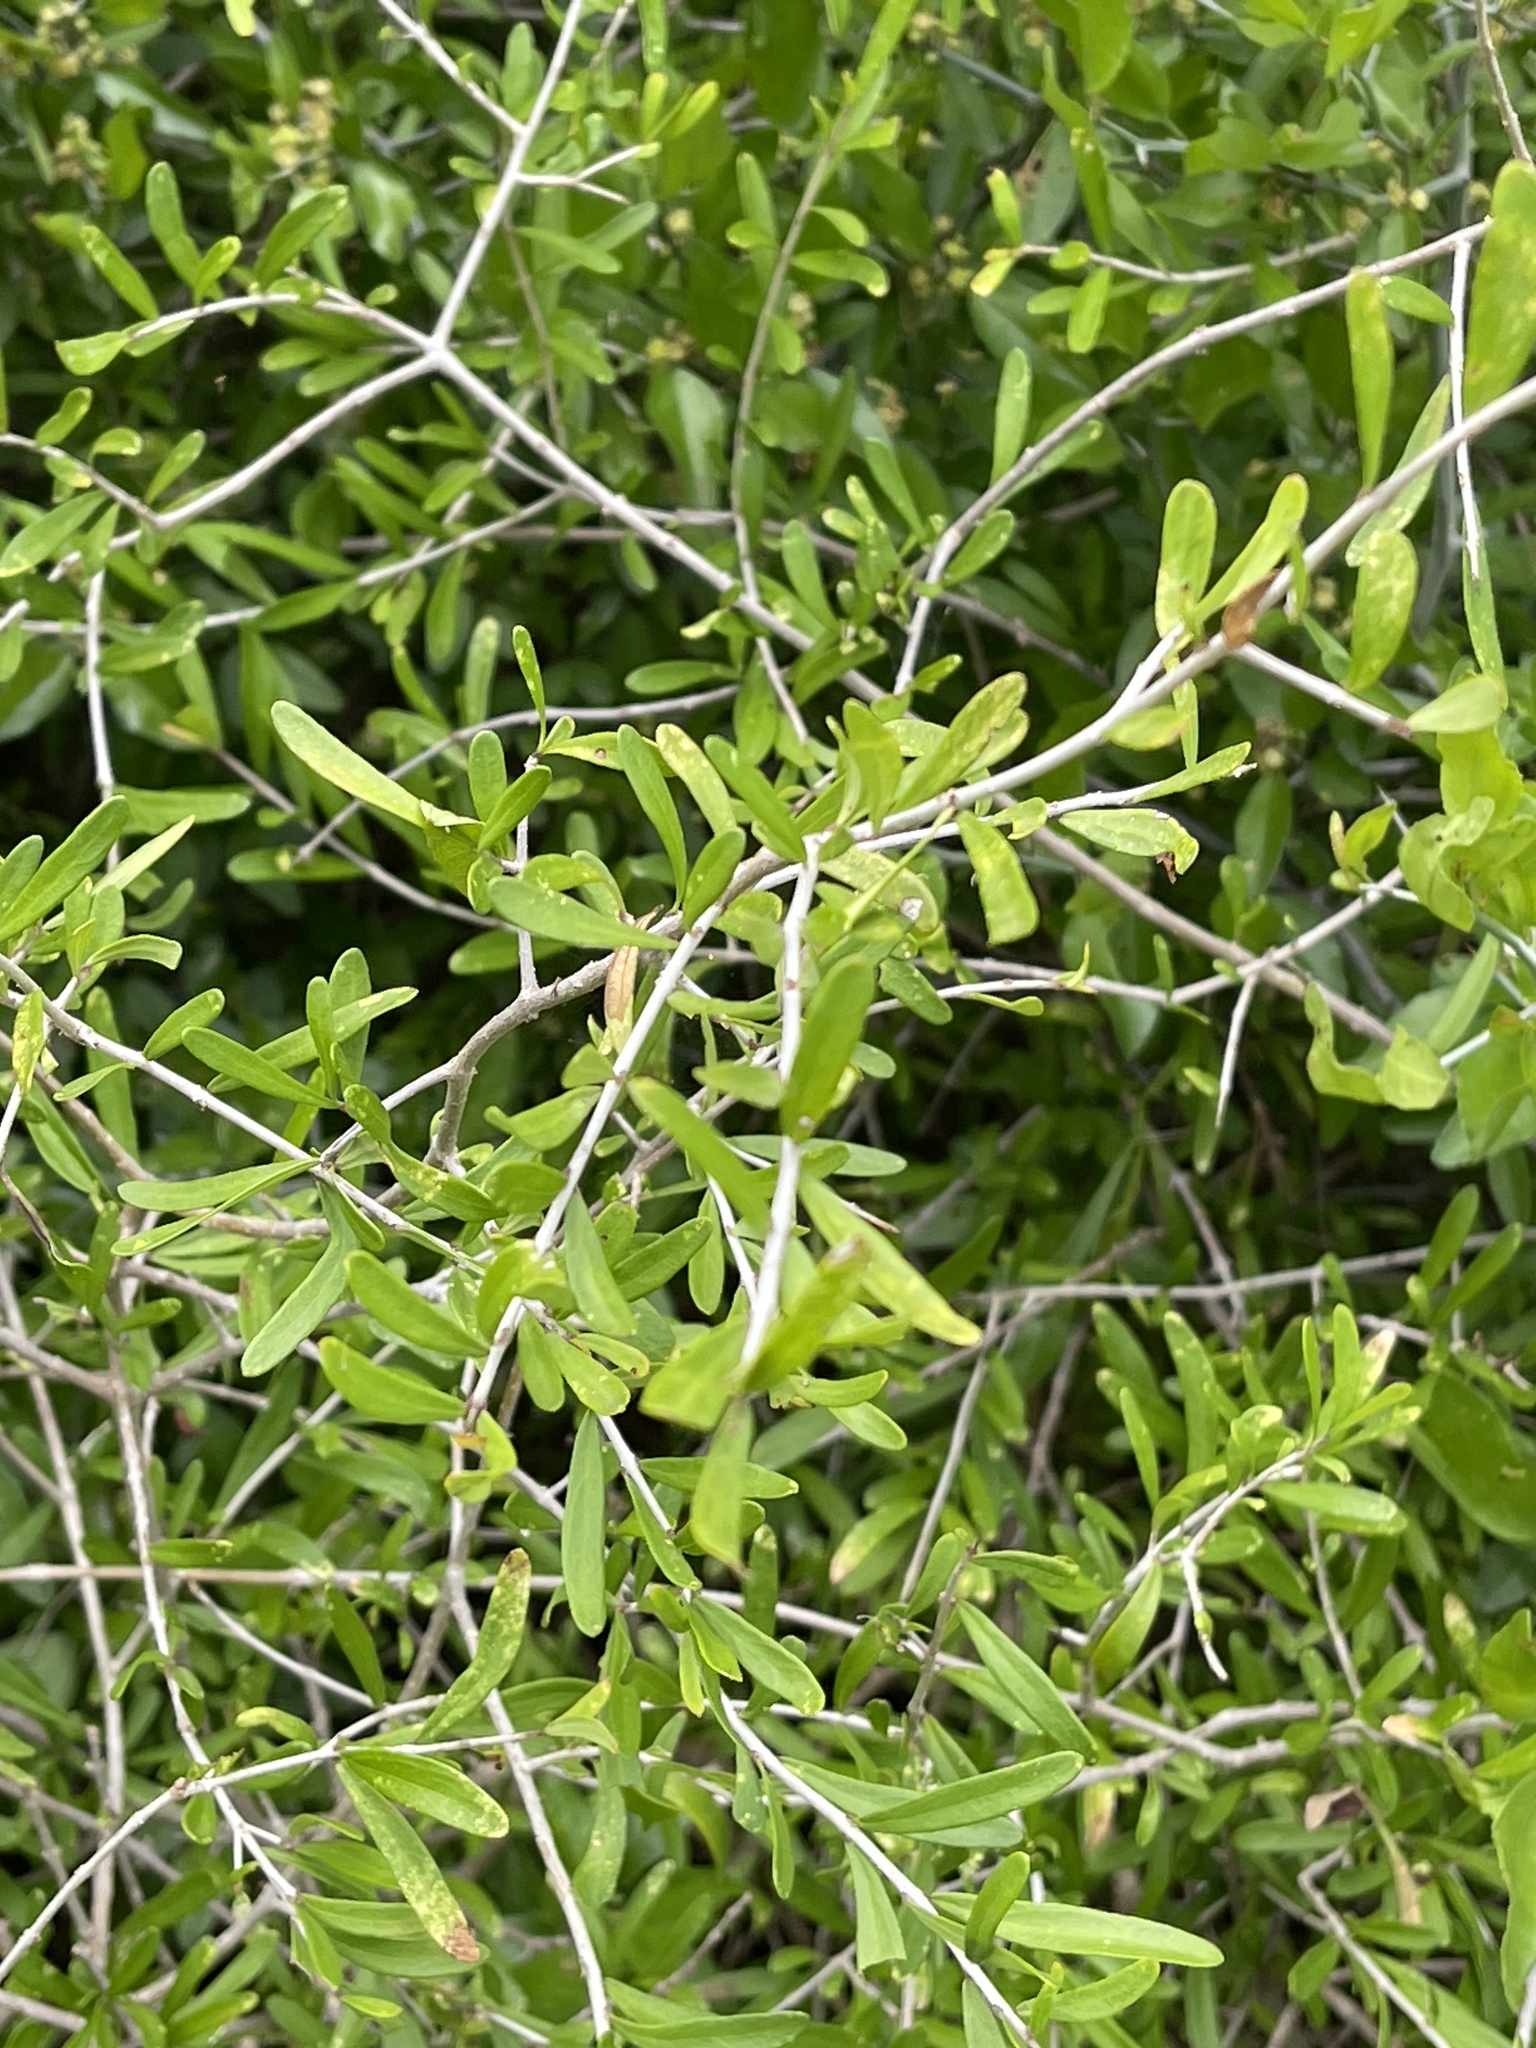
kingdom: Plantae
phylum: Tracheophyta
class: Magnoliopsida
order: Lamiales
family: Oleaceae
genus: Forestiera
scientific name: Forestiera angustifolia
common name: Elbowbush
